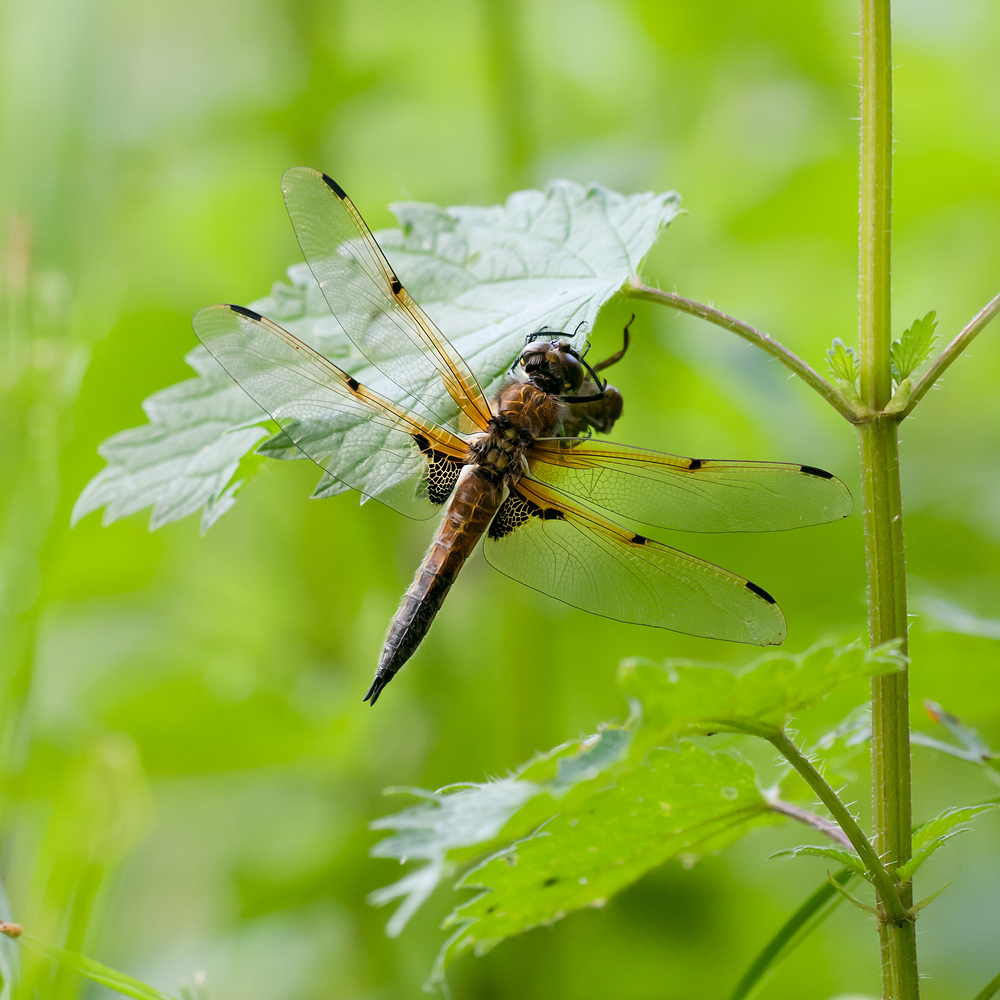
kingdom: Animalia
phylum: Arthropoda
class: Insecta
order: Odonata
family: Libellulidae
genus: Libellula
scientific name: Libellula quadrimaculata
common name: Four-spotted chaser
